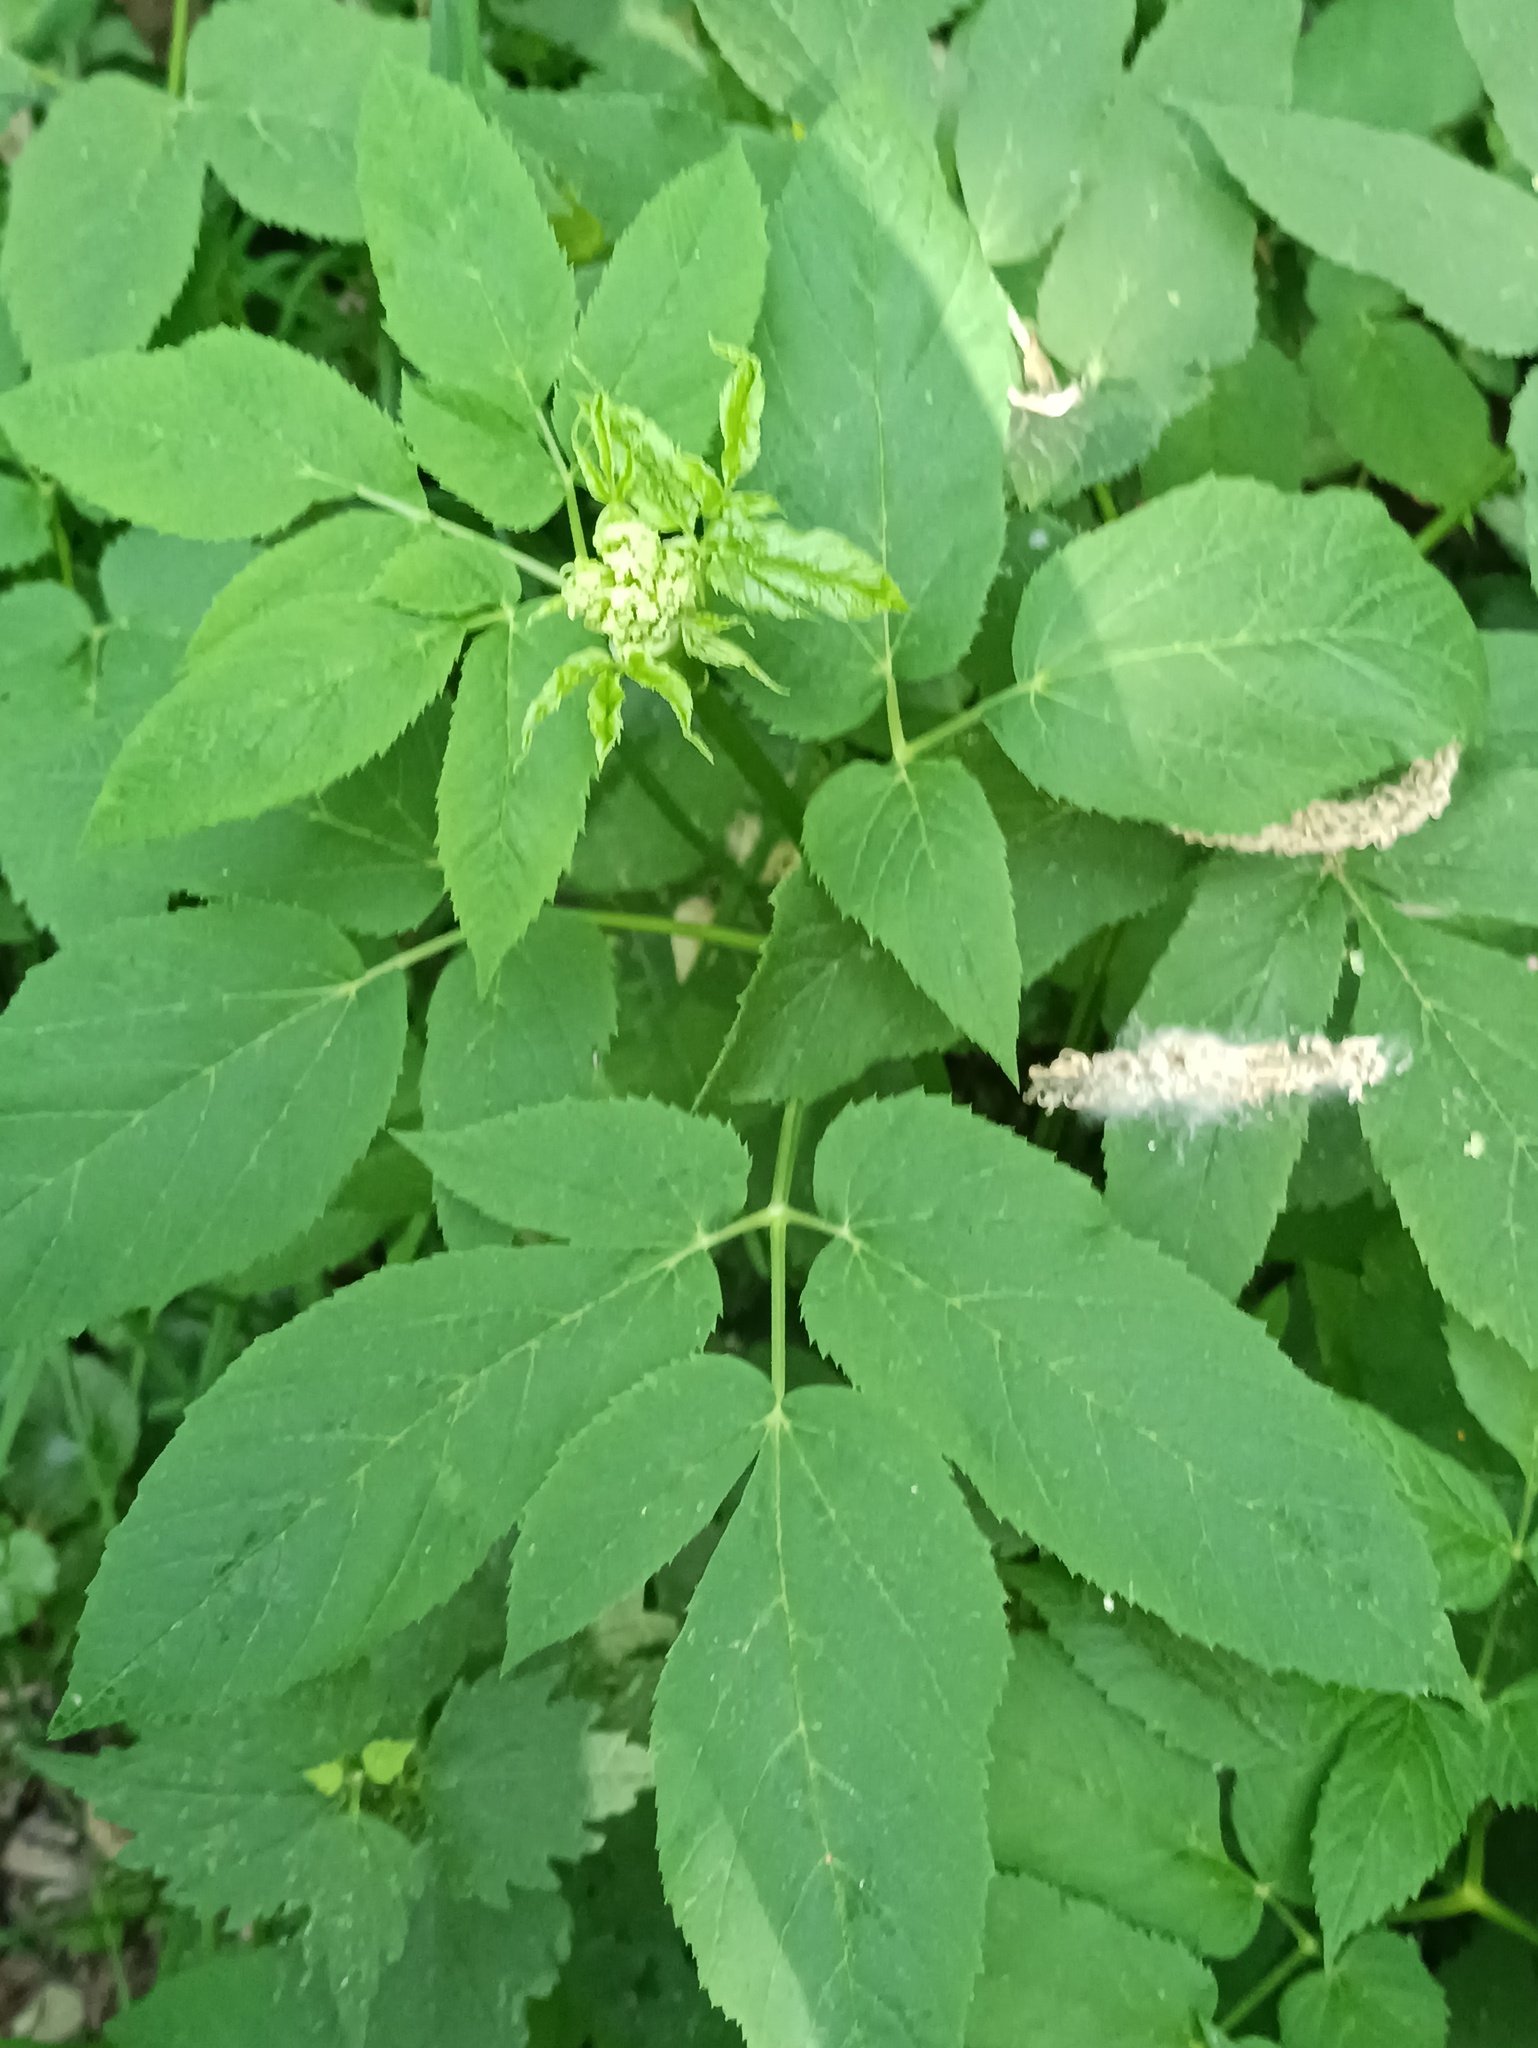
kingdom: Plantae
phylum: Tracheophyta
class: Magnoliopsida
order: Apiales
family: Apiaceae
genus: Aegopodium
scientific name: Aegopodium podagraria
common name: Ground-elder
